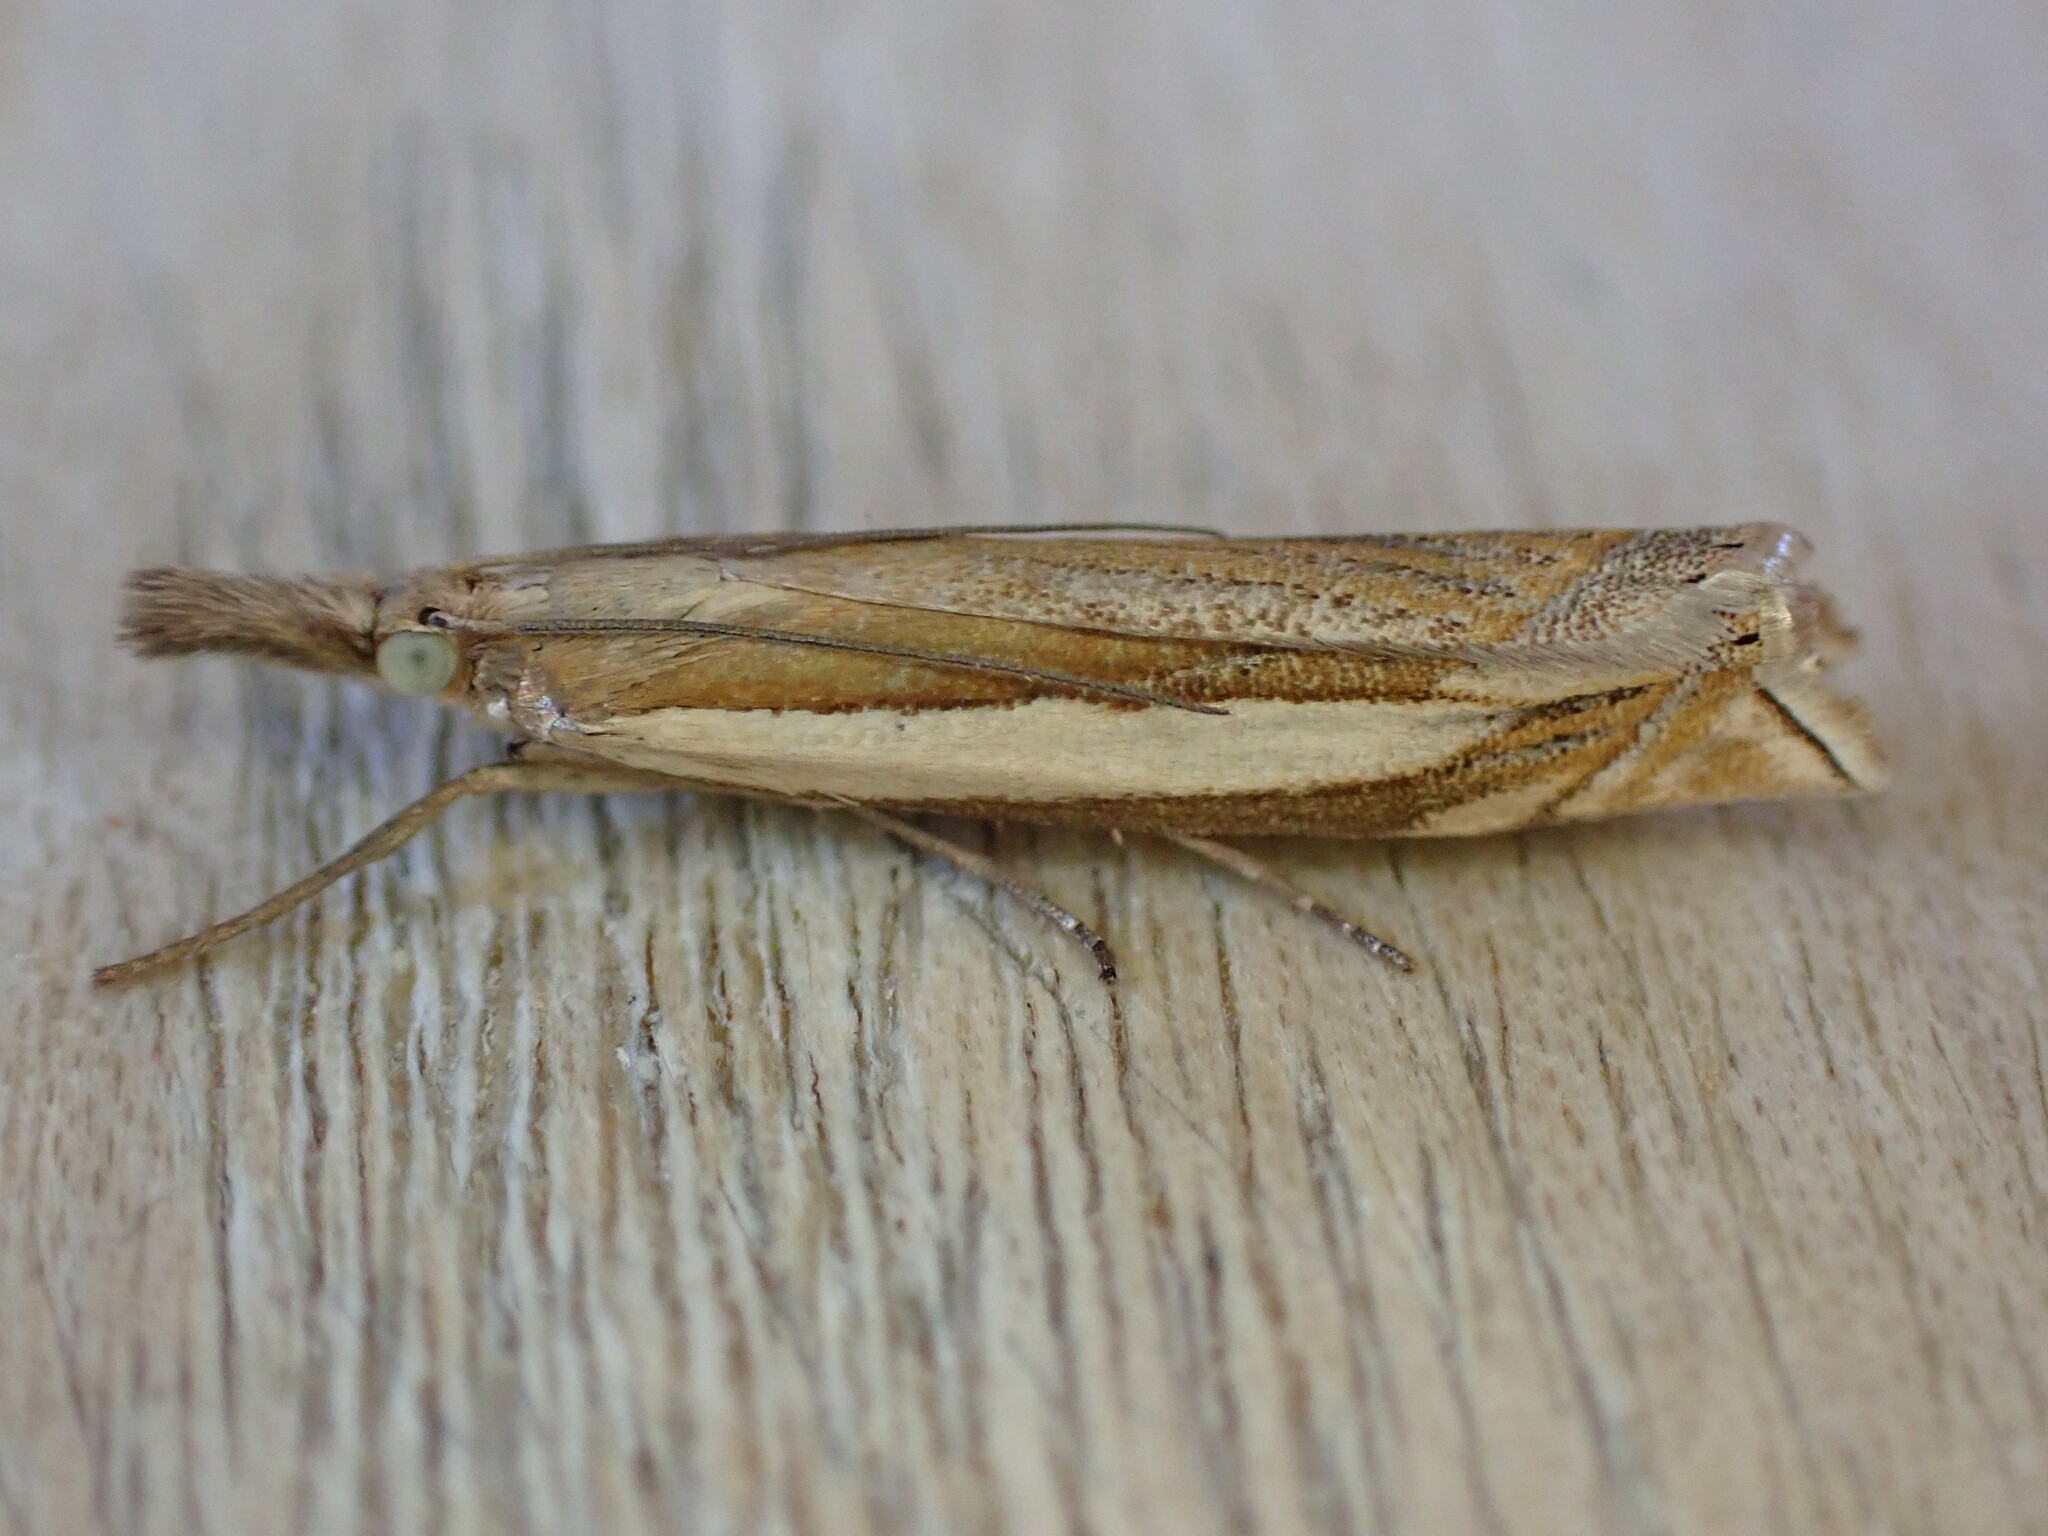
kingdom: Animalia
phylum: Arthropoda
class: Insecta
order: Lepidoptera
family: Crambidae
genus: Crambus
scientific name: Crambus pascuella
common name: Inlaid grass-veneer
